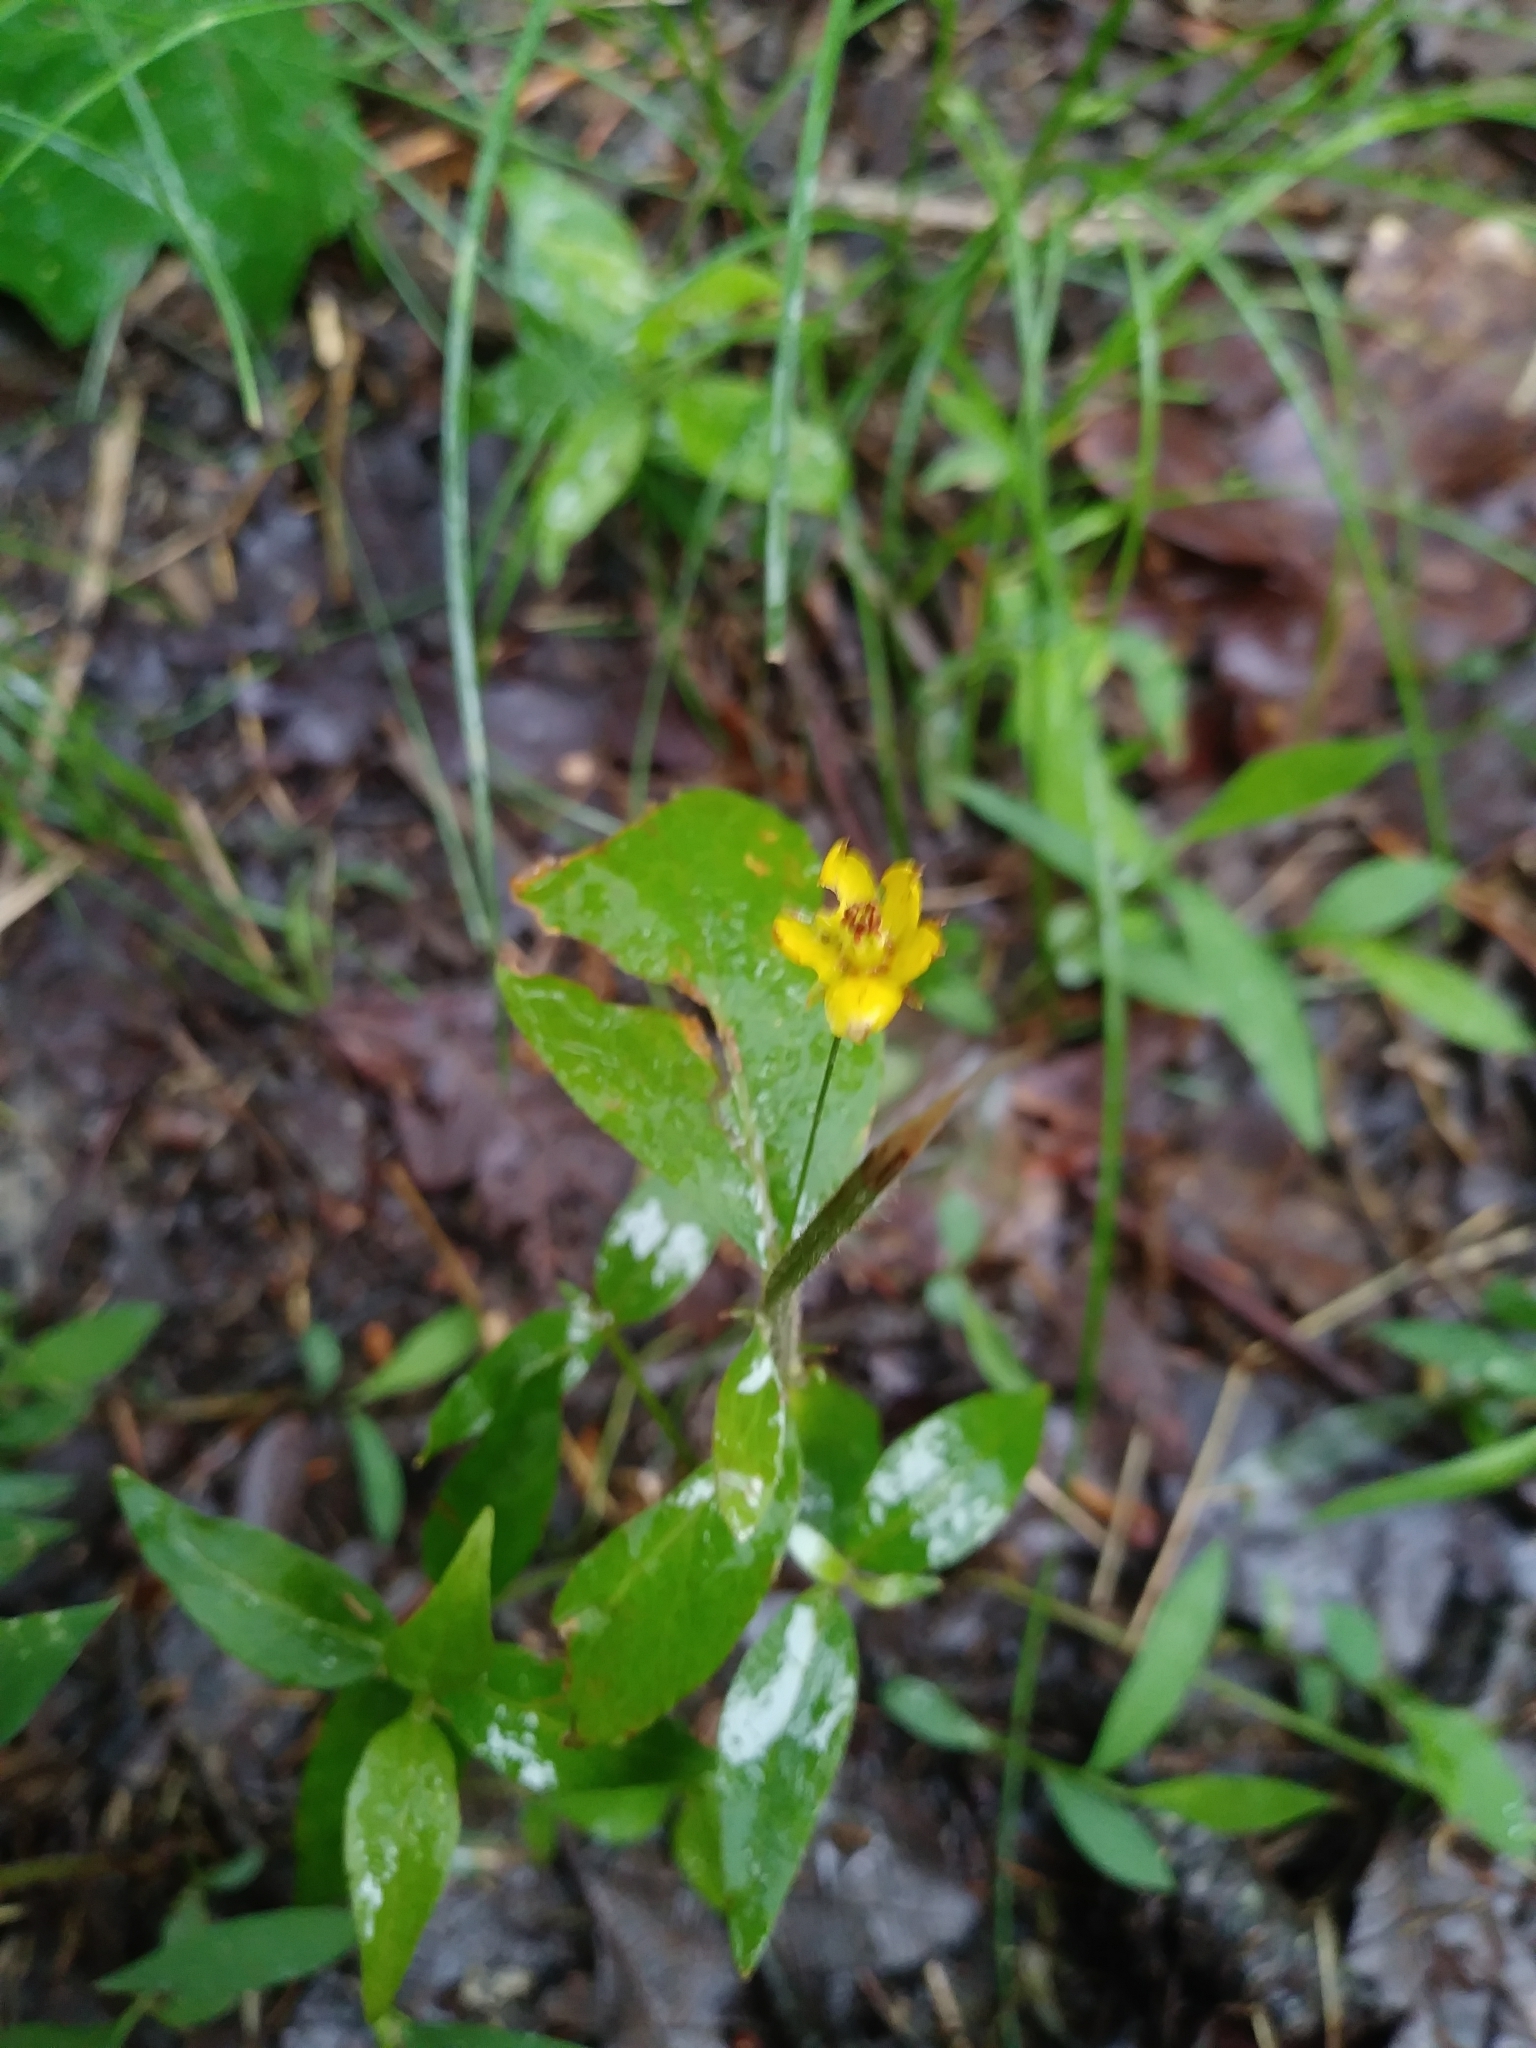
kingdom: Plantae
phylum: Tracheophyta
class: Magnoliopsida
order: Ericales
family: Primulaceae
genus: Lysimachia
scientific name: Lysimachia quadrifolia
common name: Whorled loosestrife
